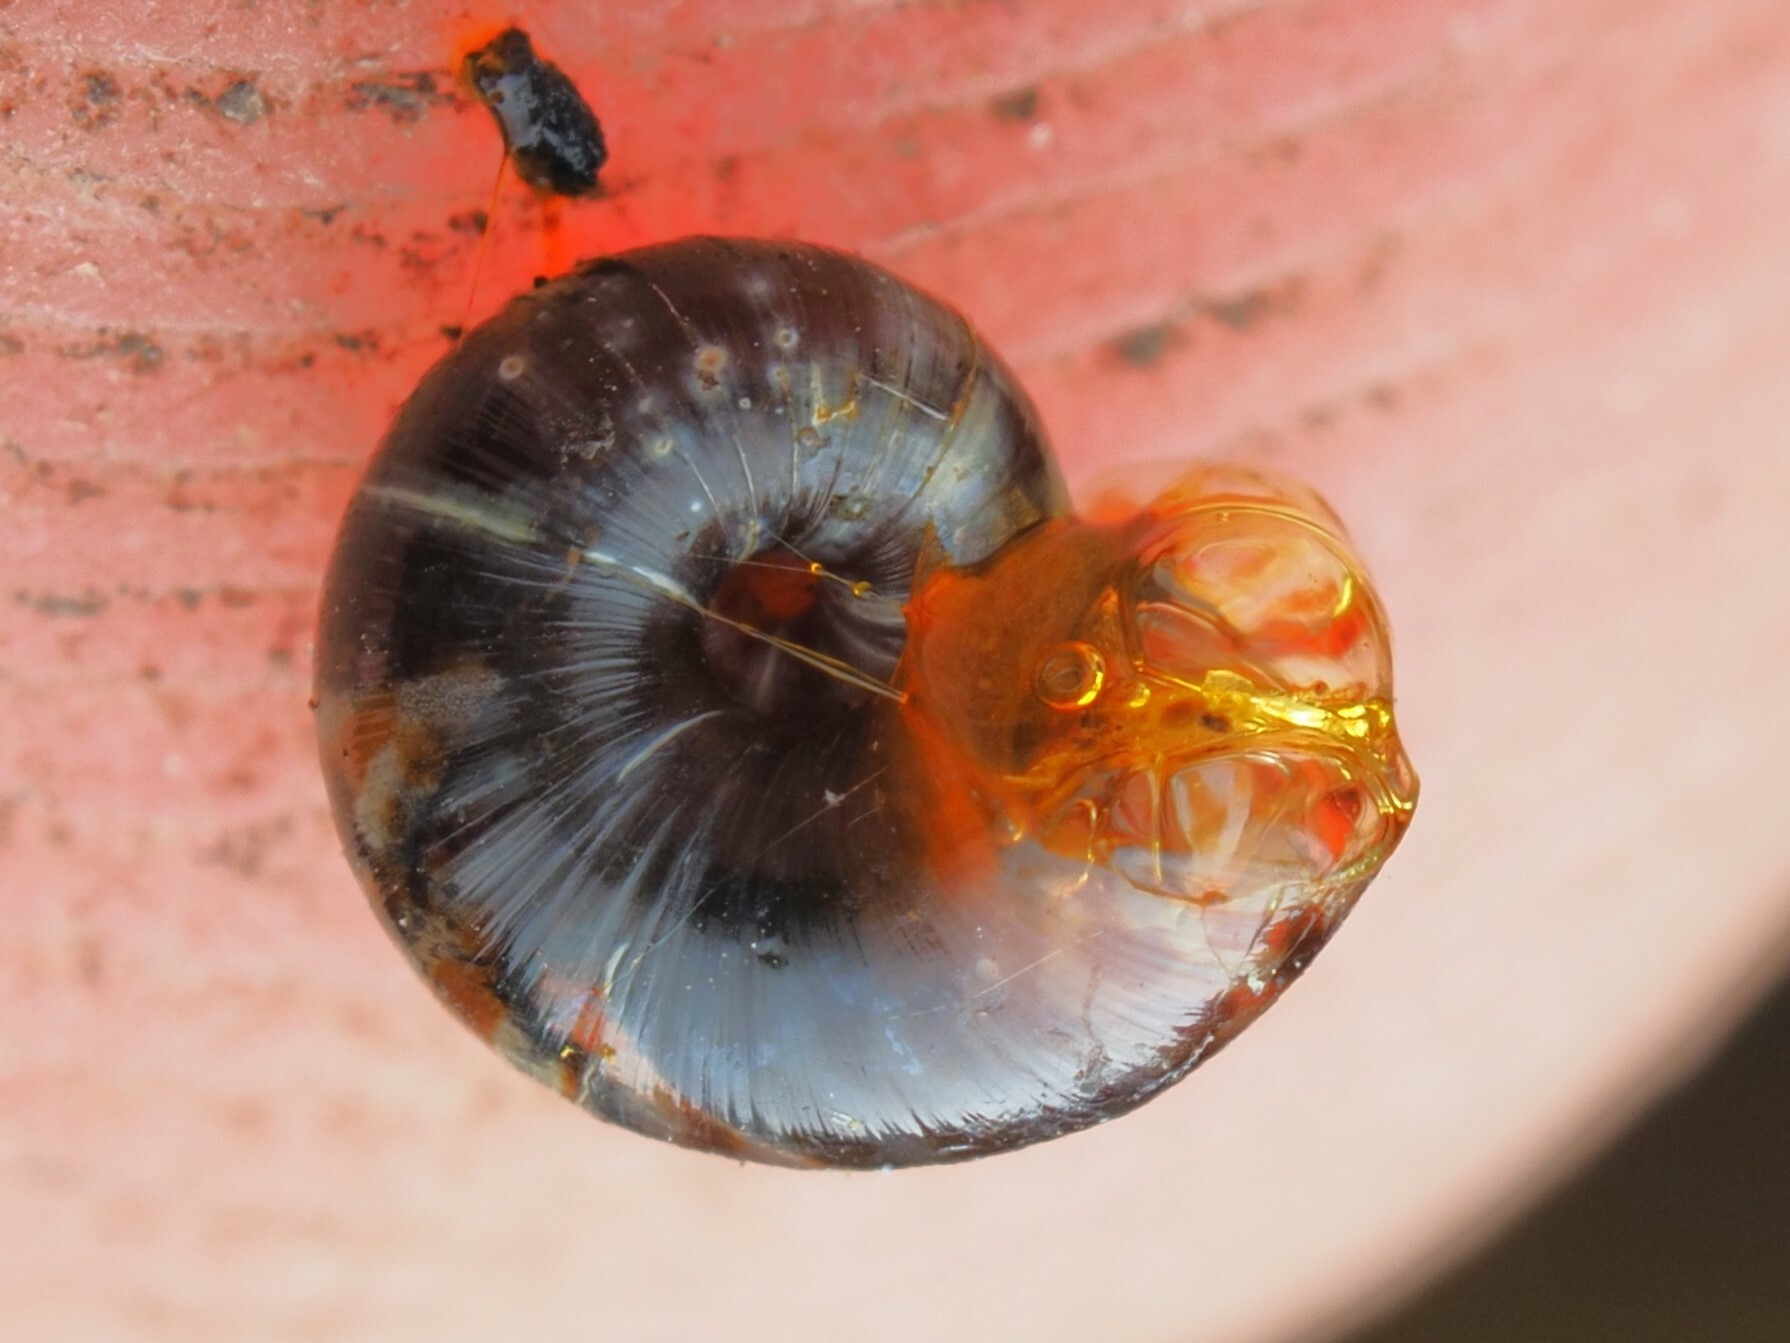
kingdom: Animalia
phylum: Mollusca
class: Gastropoda
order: Stylommatophora
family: Charopidae
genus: Flammulina
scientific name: Flammulina crebriflammea
